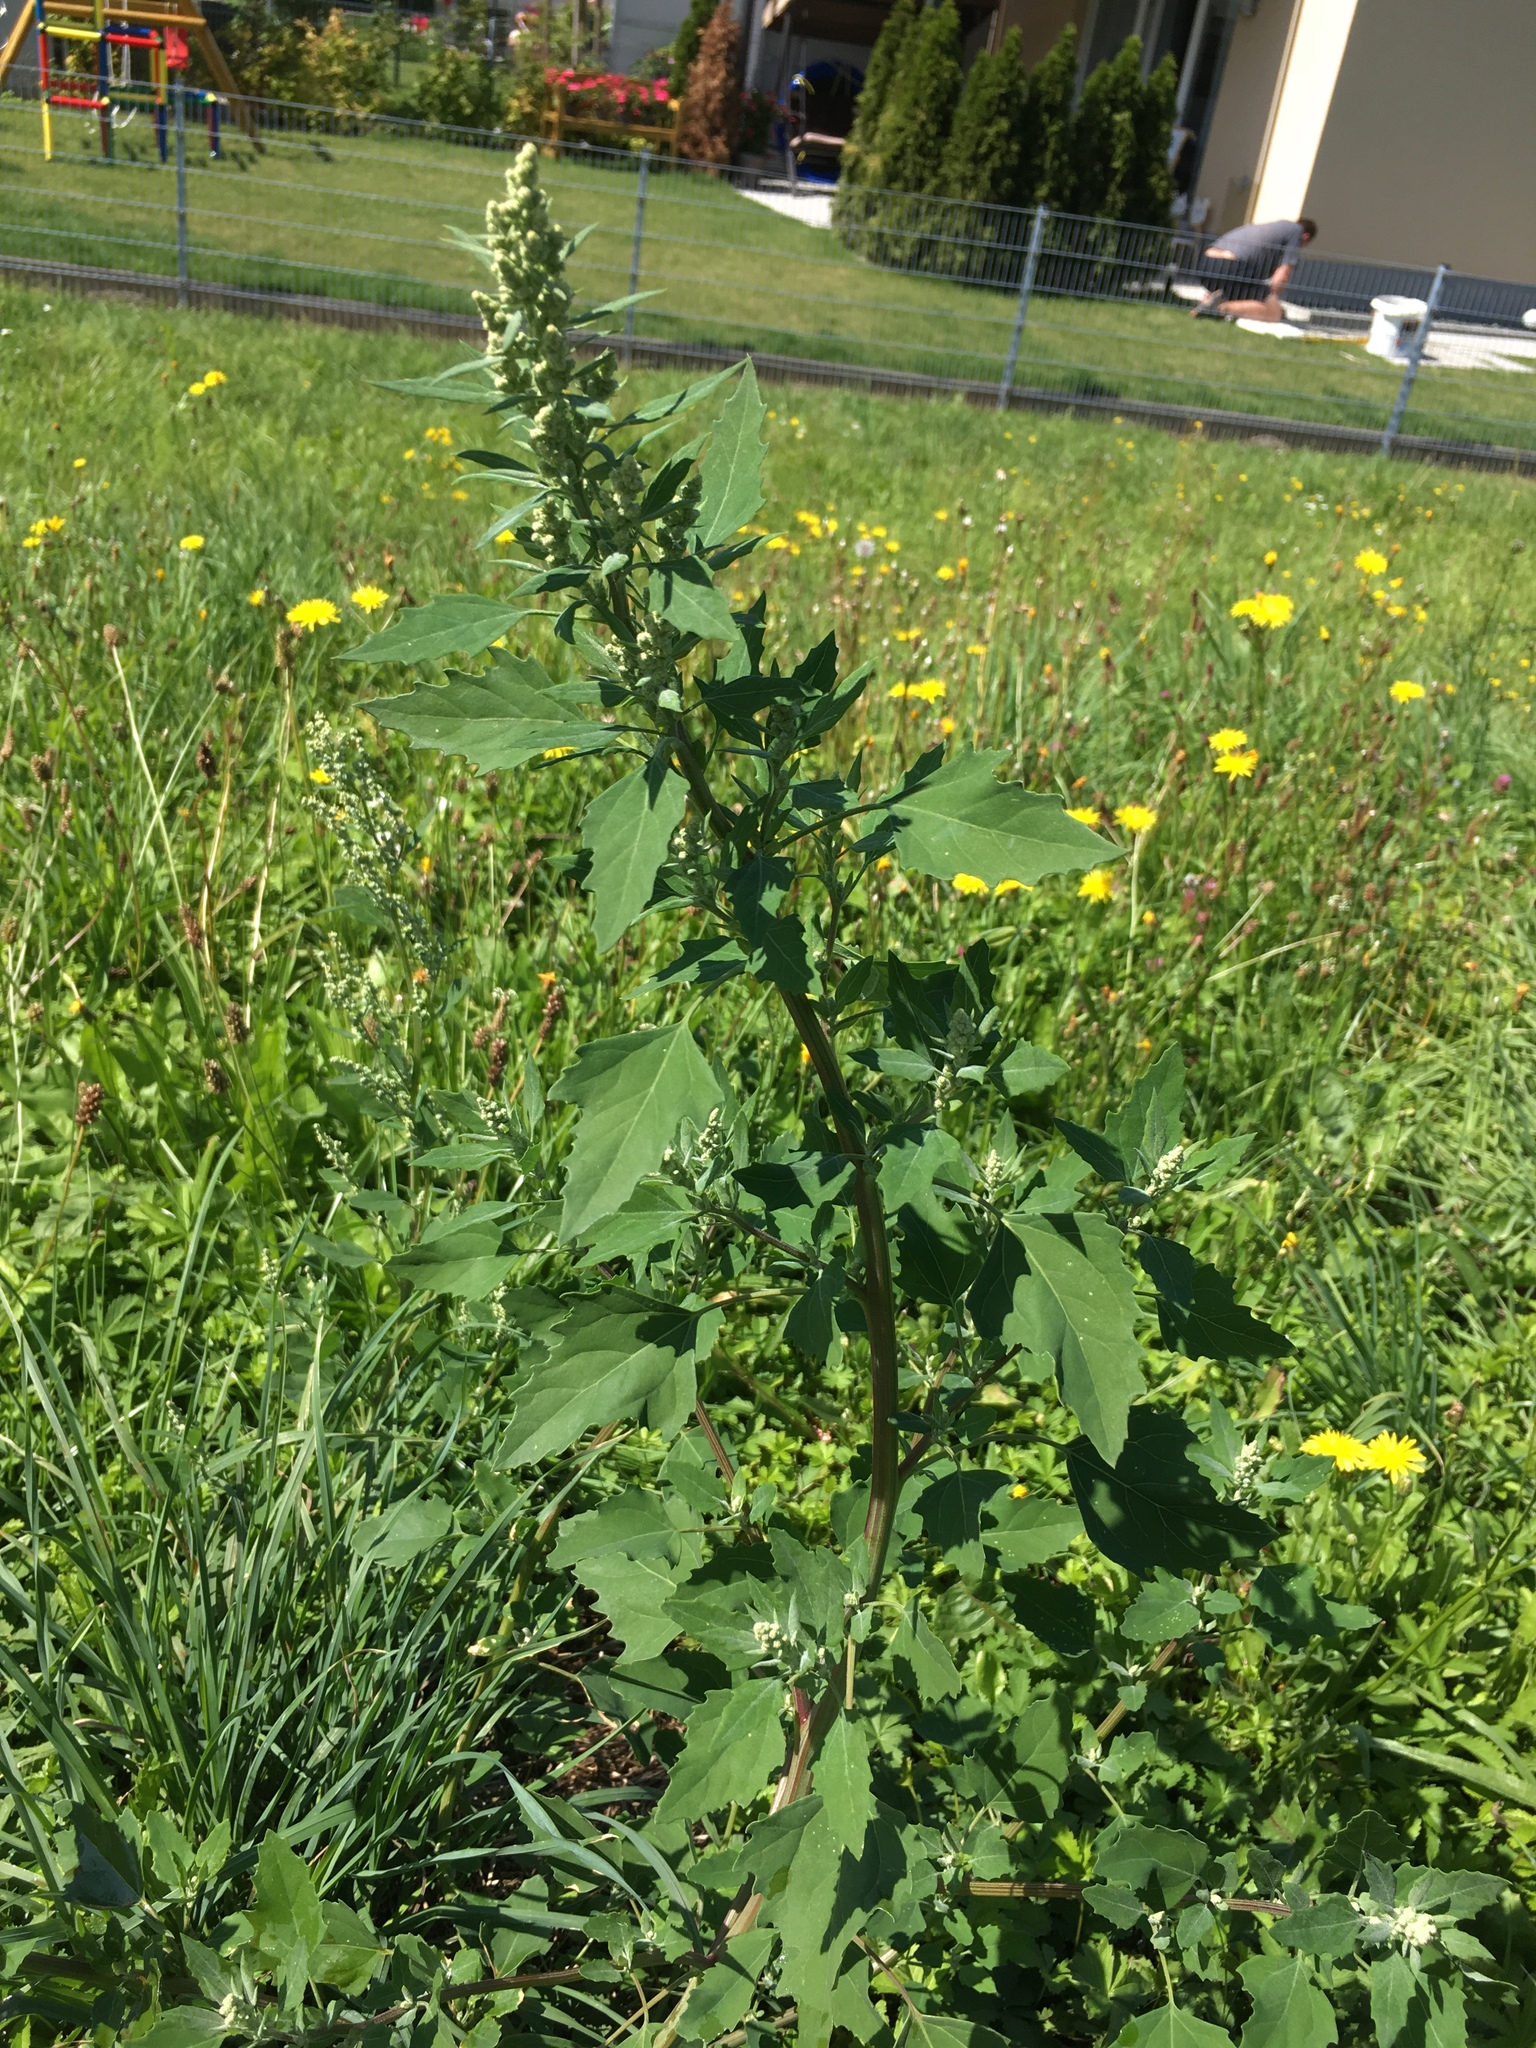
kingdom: Plantae
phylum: Tracheophyta
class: Magnoliopsida
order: Caryophyllales
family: Amaranthaceae
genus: Chenopodium
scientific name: Chenopodium album
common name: Fat-hen
